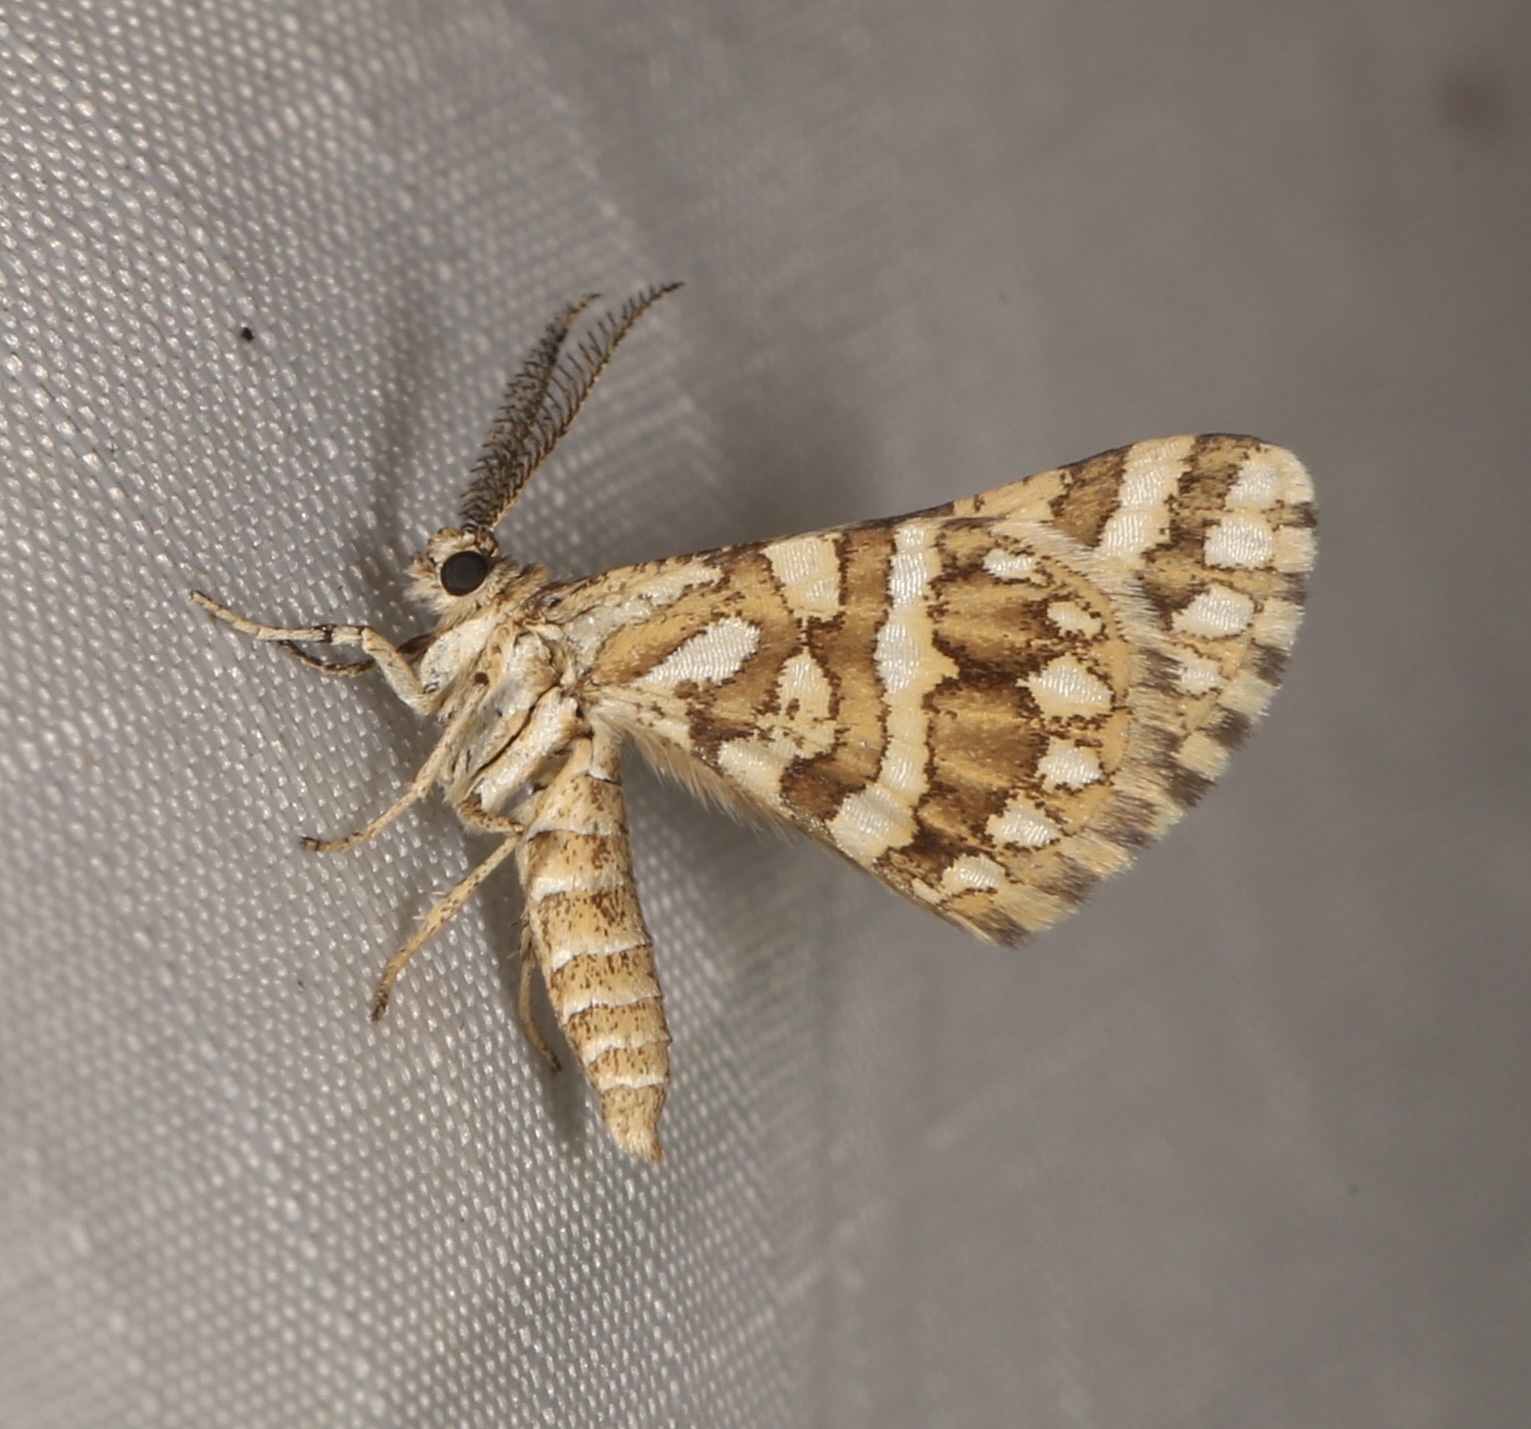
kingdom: Animalia
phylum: Arthropoda
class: Insecta
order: Lepidoptera
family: Geometridae
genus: Narraga
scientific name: Narraga fimetaria
